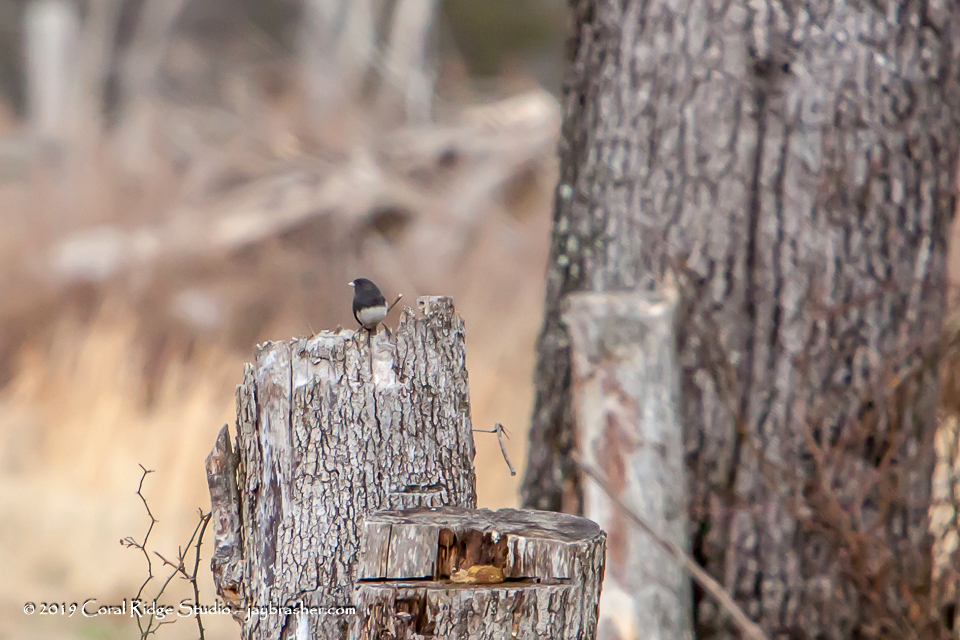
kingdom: Animalia
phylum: Chordata
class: Aves
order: Passeriformes
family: Passerellidae
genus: Junco
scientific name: Junco hyemalis
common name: Dark-eyed junco
